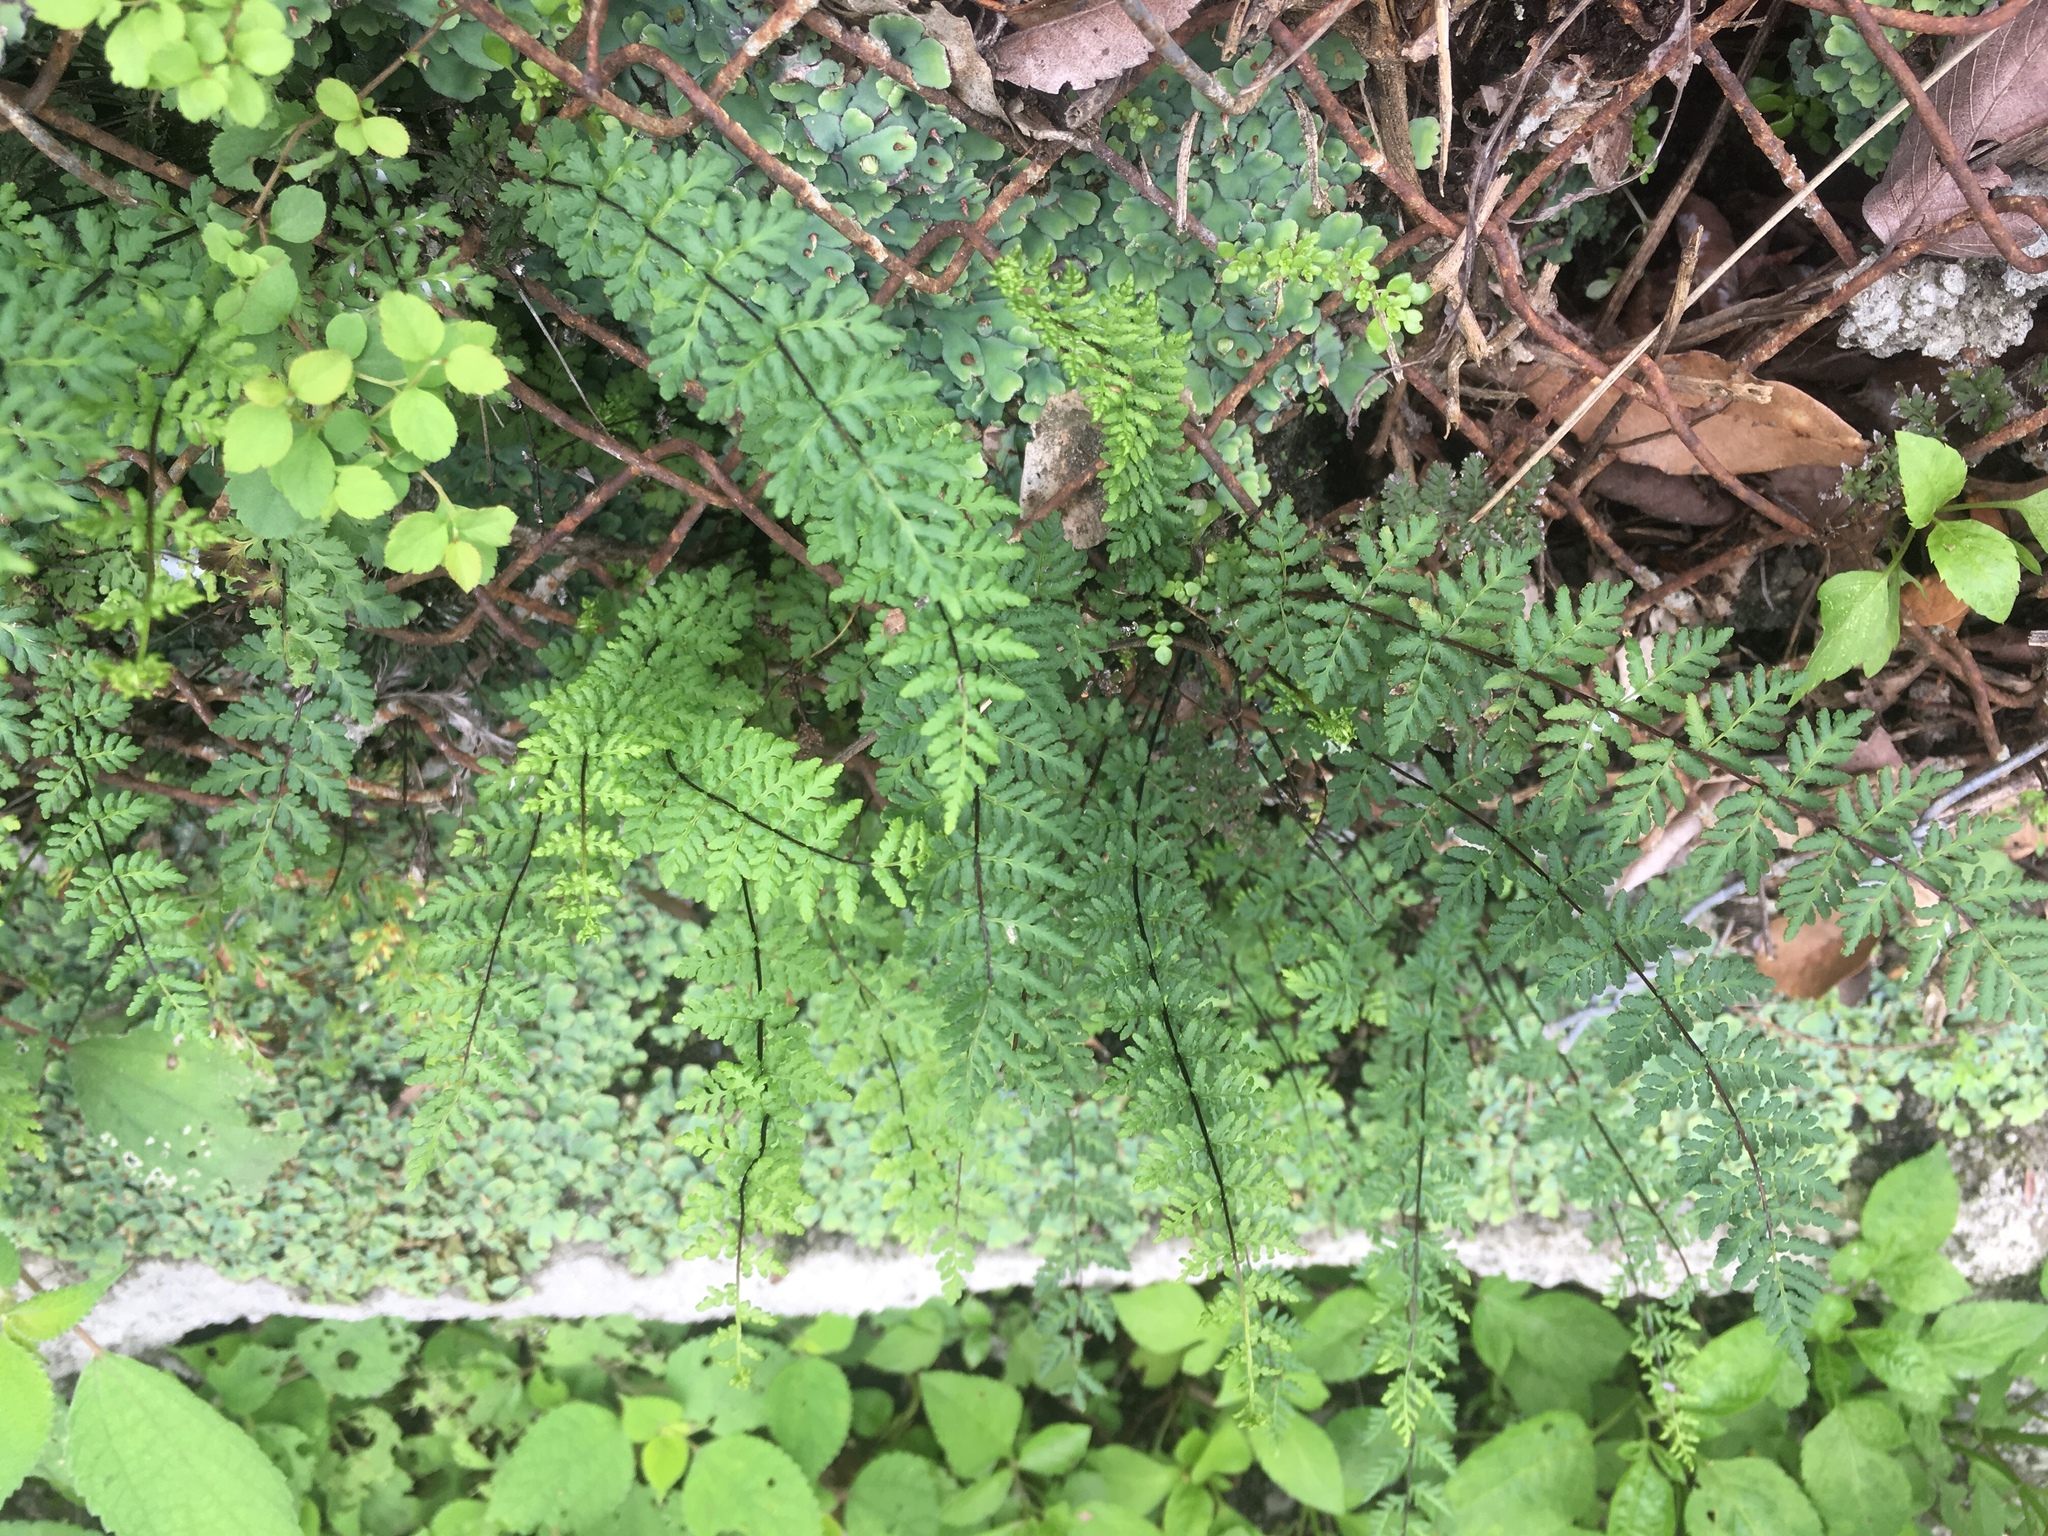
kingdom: Plantae
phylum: Tracheophyta
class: Polypodiopsida
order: Polypodiales
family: Pteridaceae
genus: Oeosporangium
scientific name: Oeosporangium chusanum
